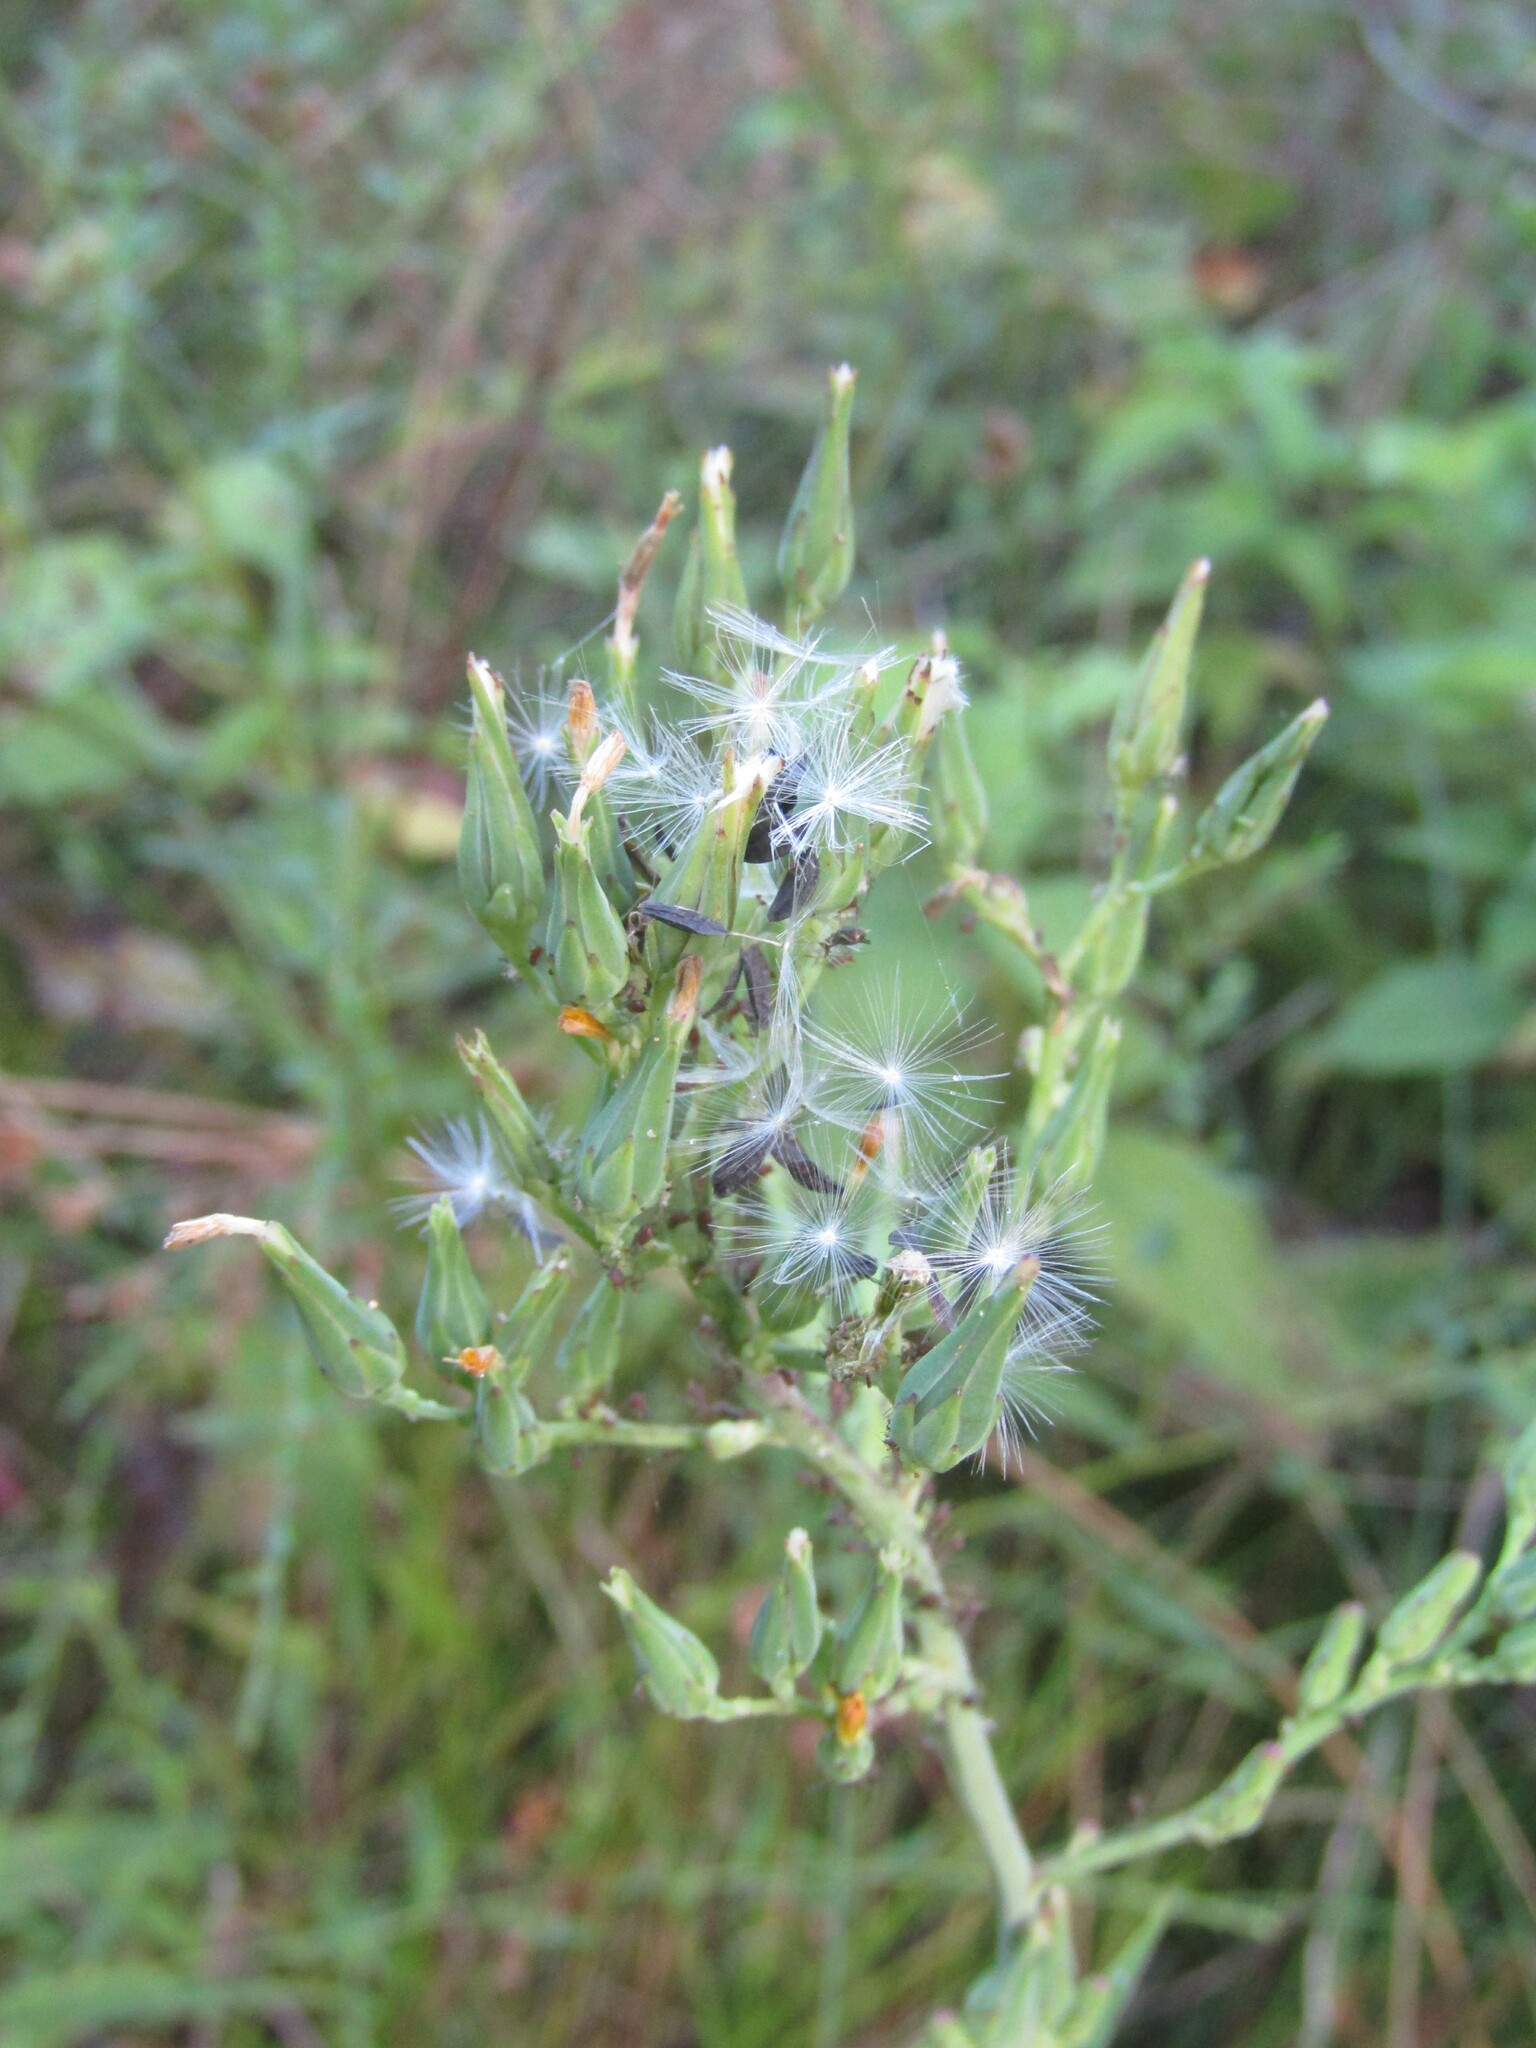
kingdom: Plantae
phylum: Tracheophyta
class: Magnoliopsida
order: Asterales
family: Asteraceae
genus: Lactuca
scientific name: Lactuca canadensis
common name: Canada lettuce
